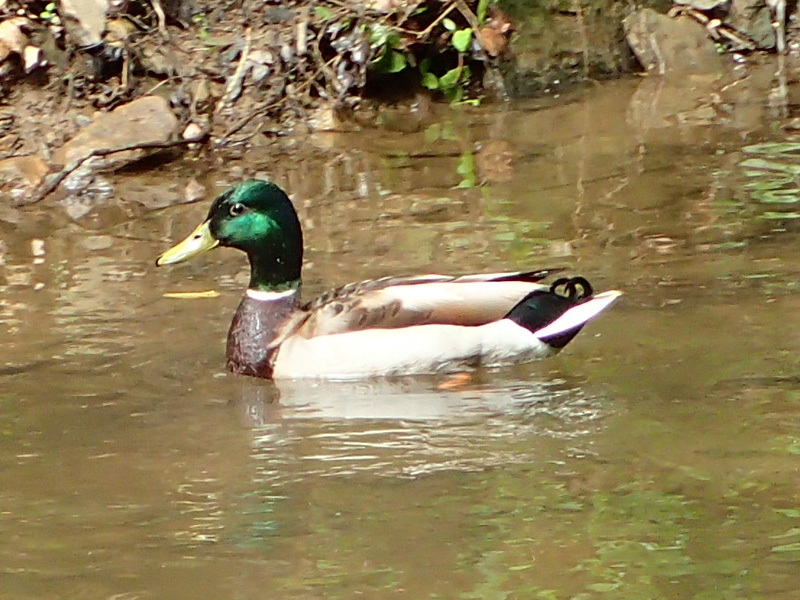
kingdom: Animalia
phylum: Chordata
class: Aves
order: Anseriformes
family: Anatidae
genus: Anas
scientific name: Anas platyrhynchos
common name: Mallard
